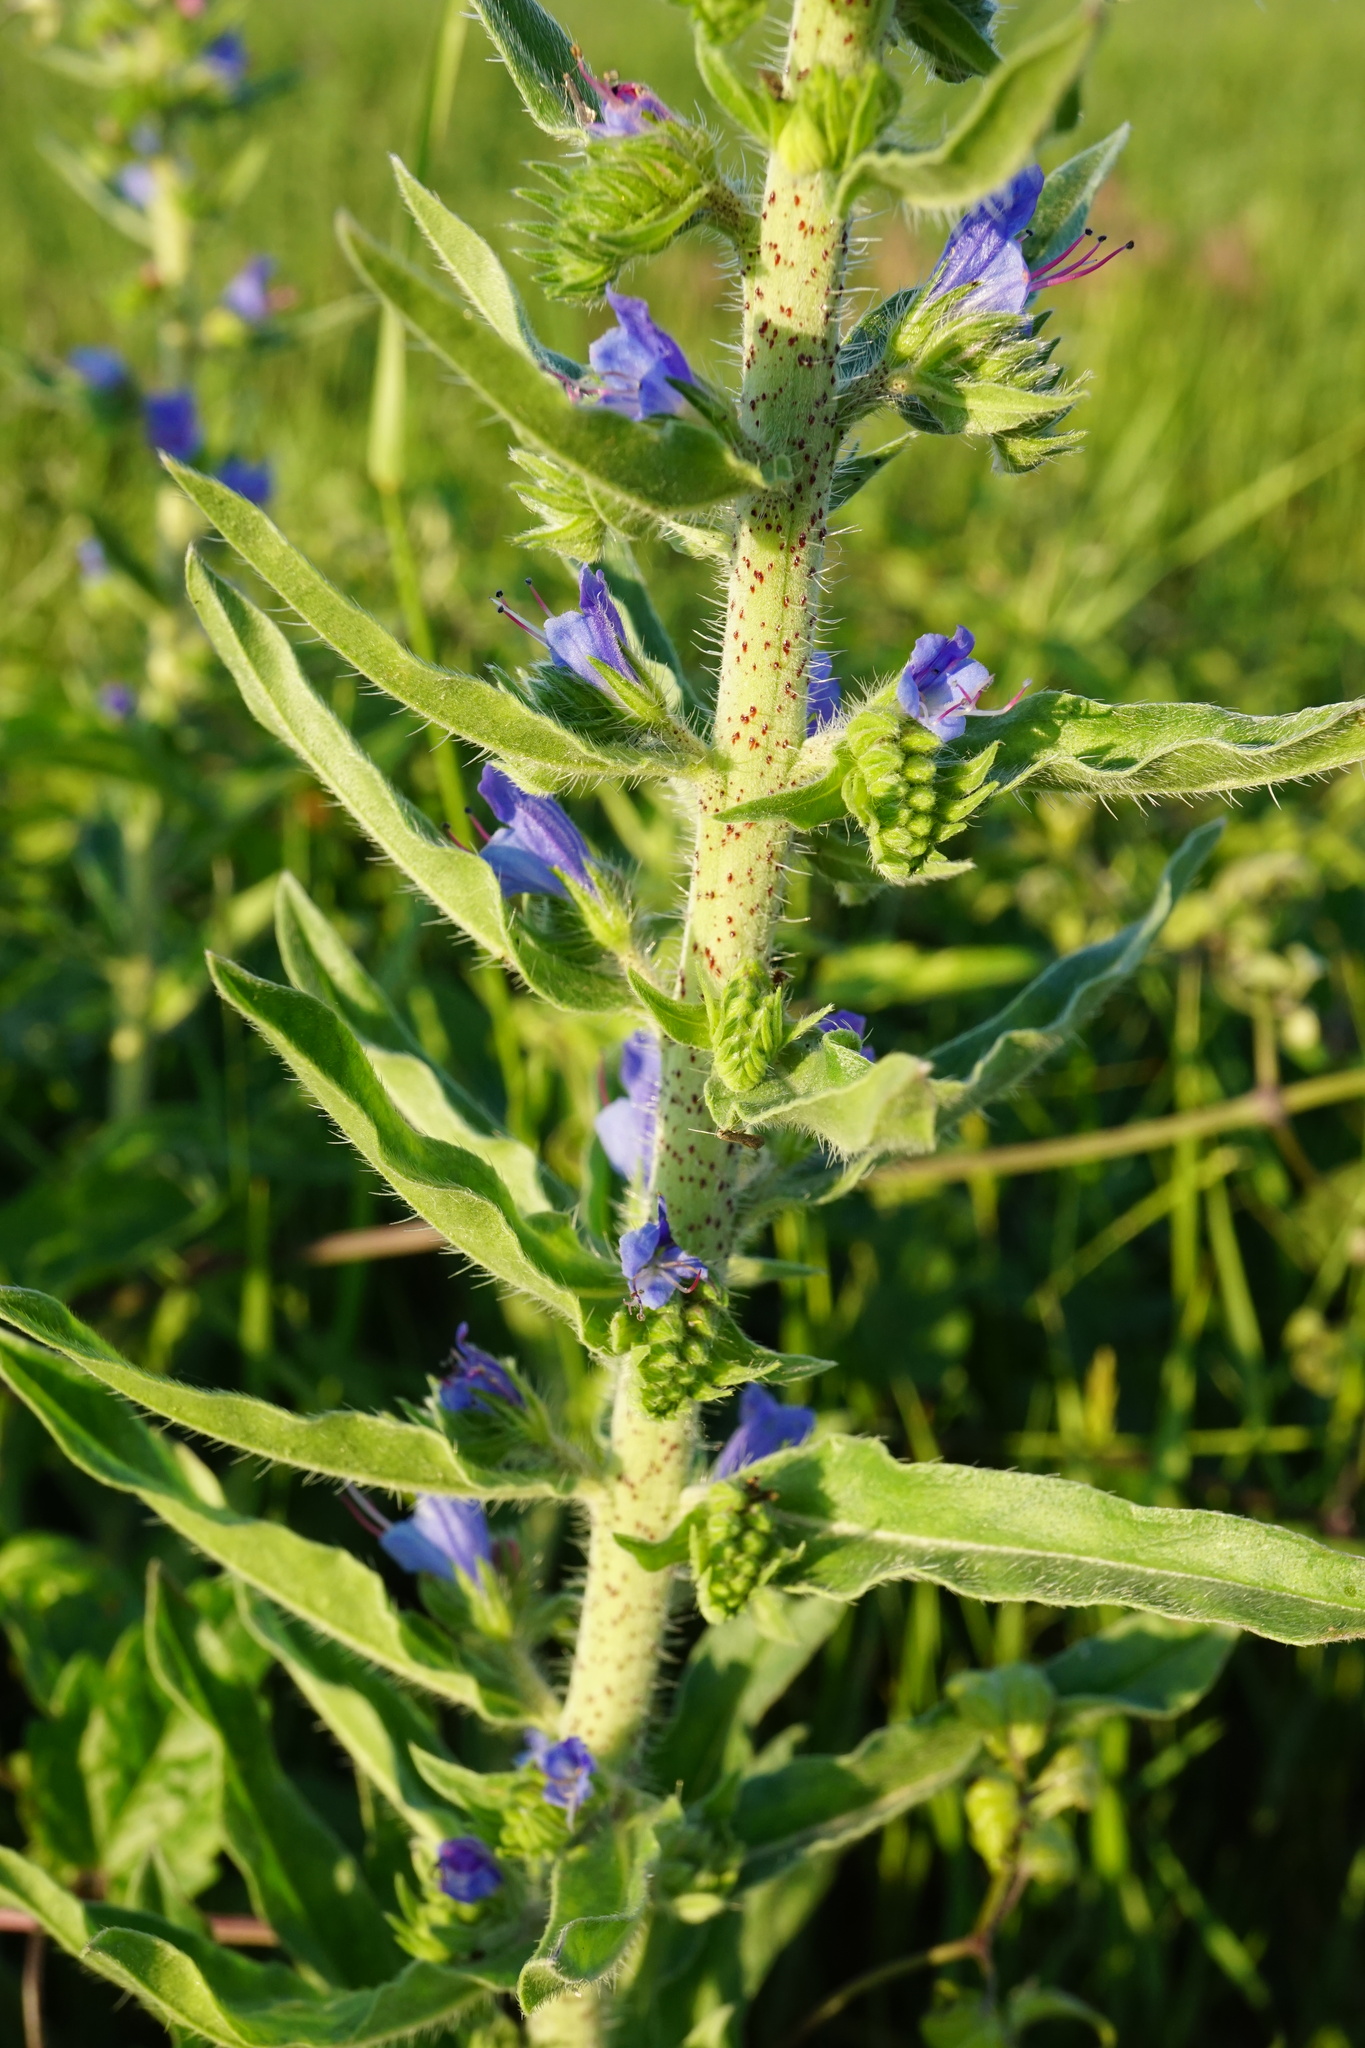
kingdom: Plantae
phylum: Tracheophyta
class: Magnoliopsida
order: Boraginales
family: Boraginaceae
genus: Echium
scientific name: Echium vulgare
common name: Common viper's bugloss
